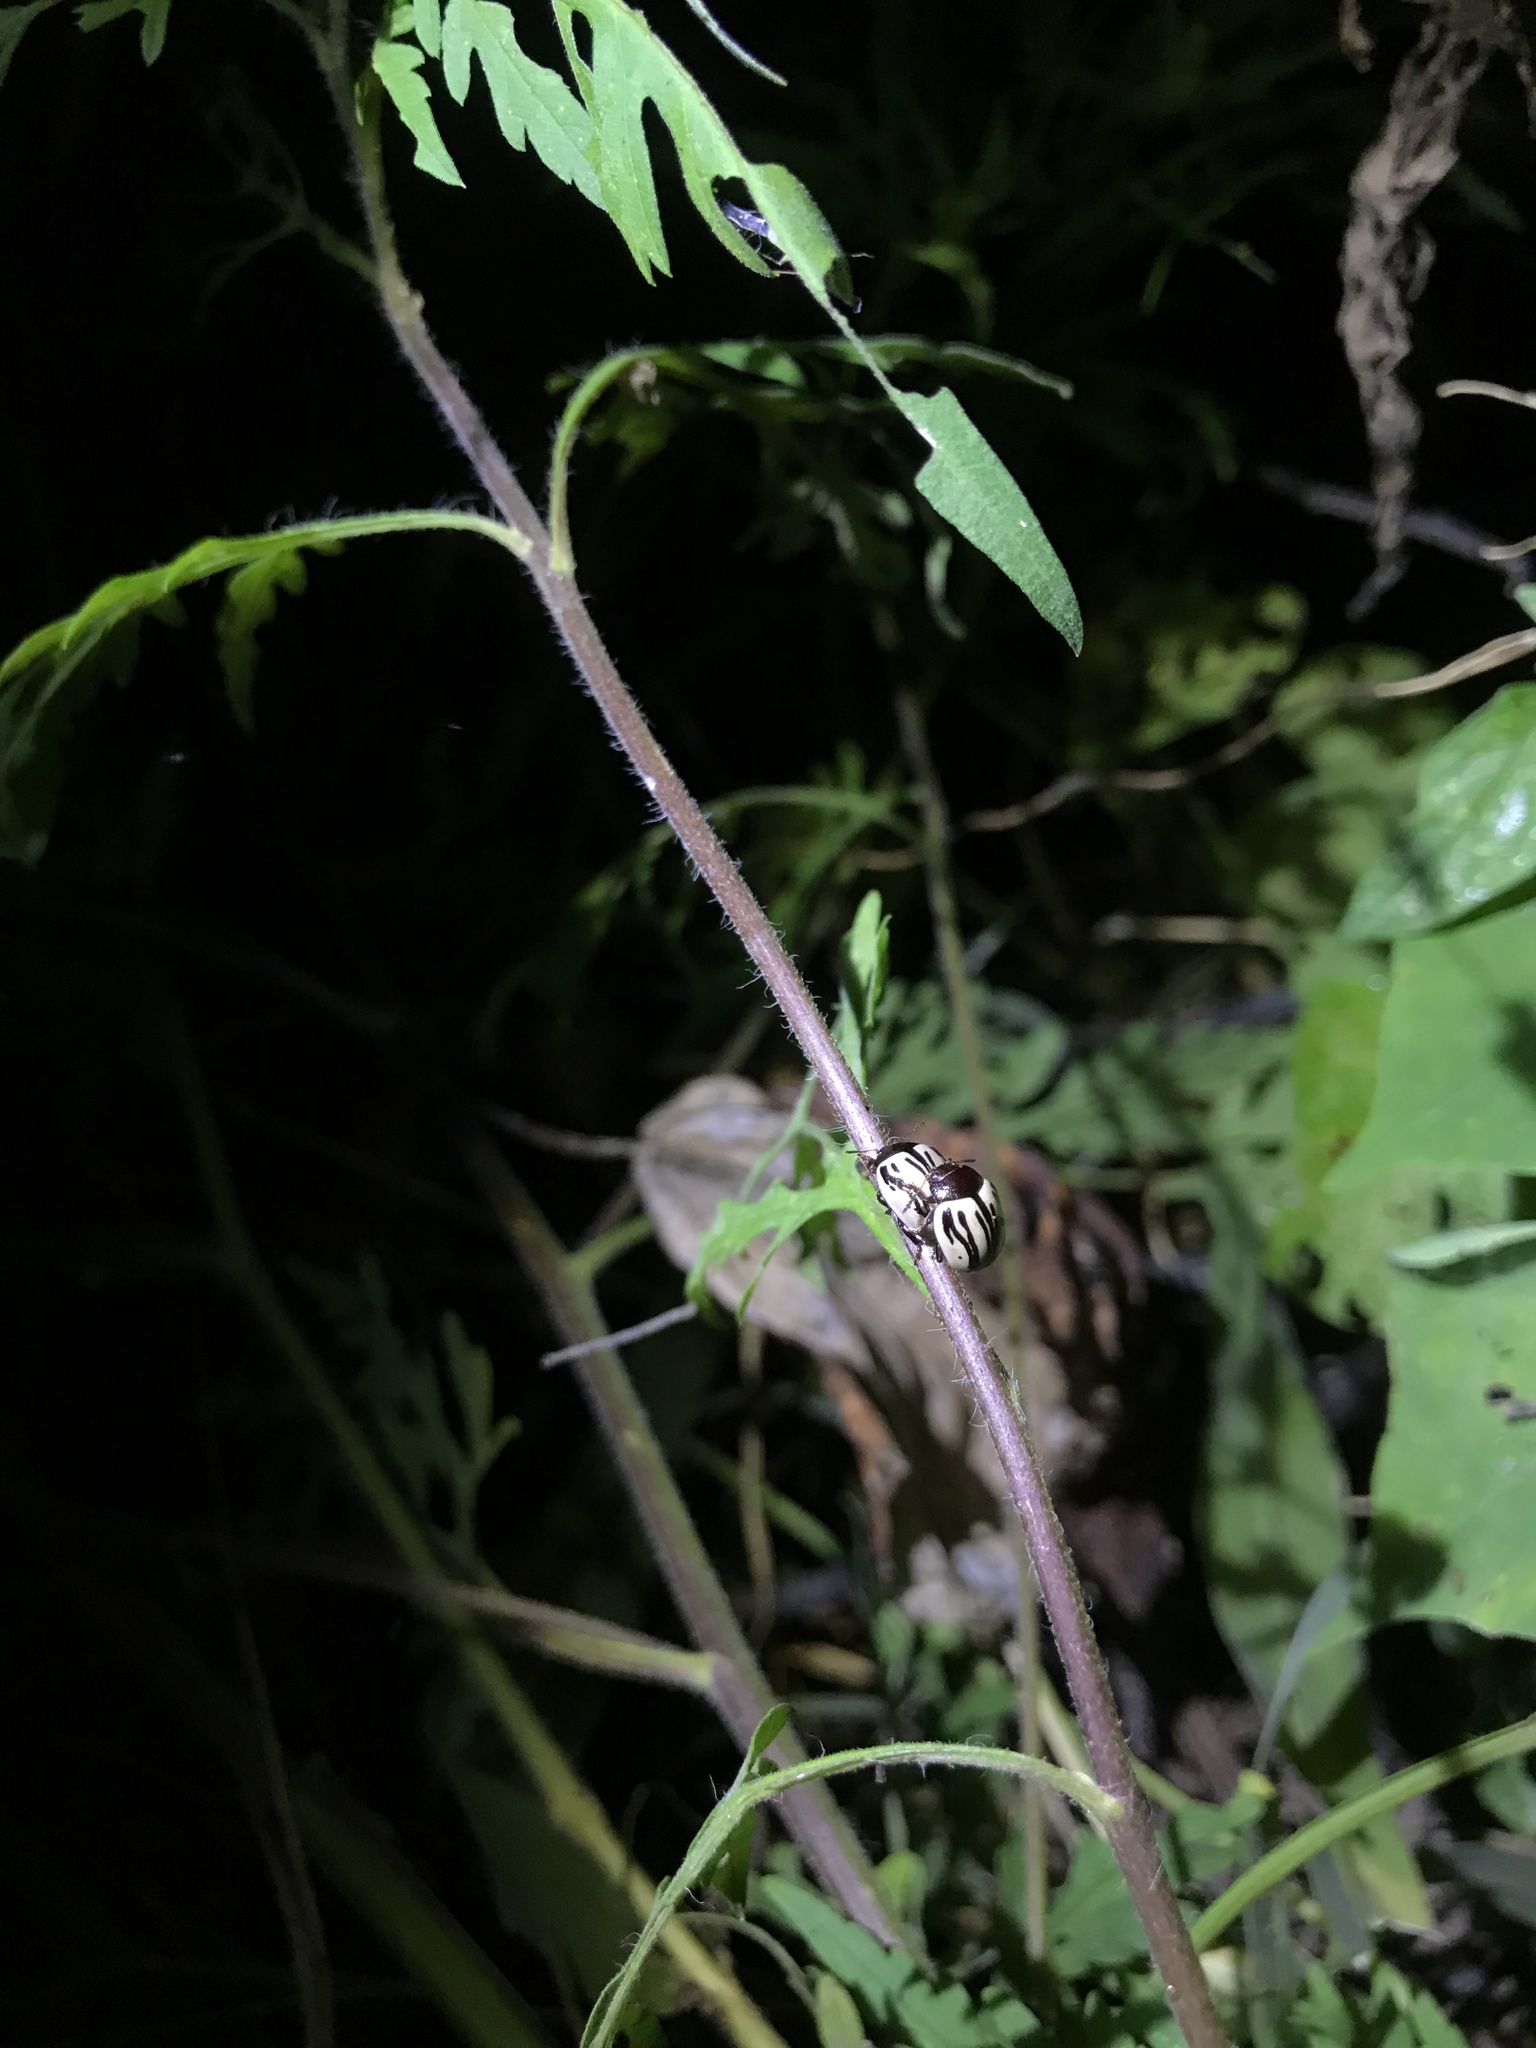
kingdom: Animalia
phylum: Arthropoda
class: Insecta
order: Coleoptera
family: Chrysomelidae
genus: Calligrapha
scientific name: Calligrapha
